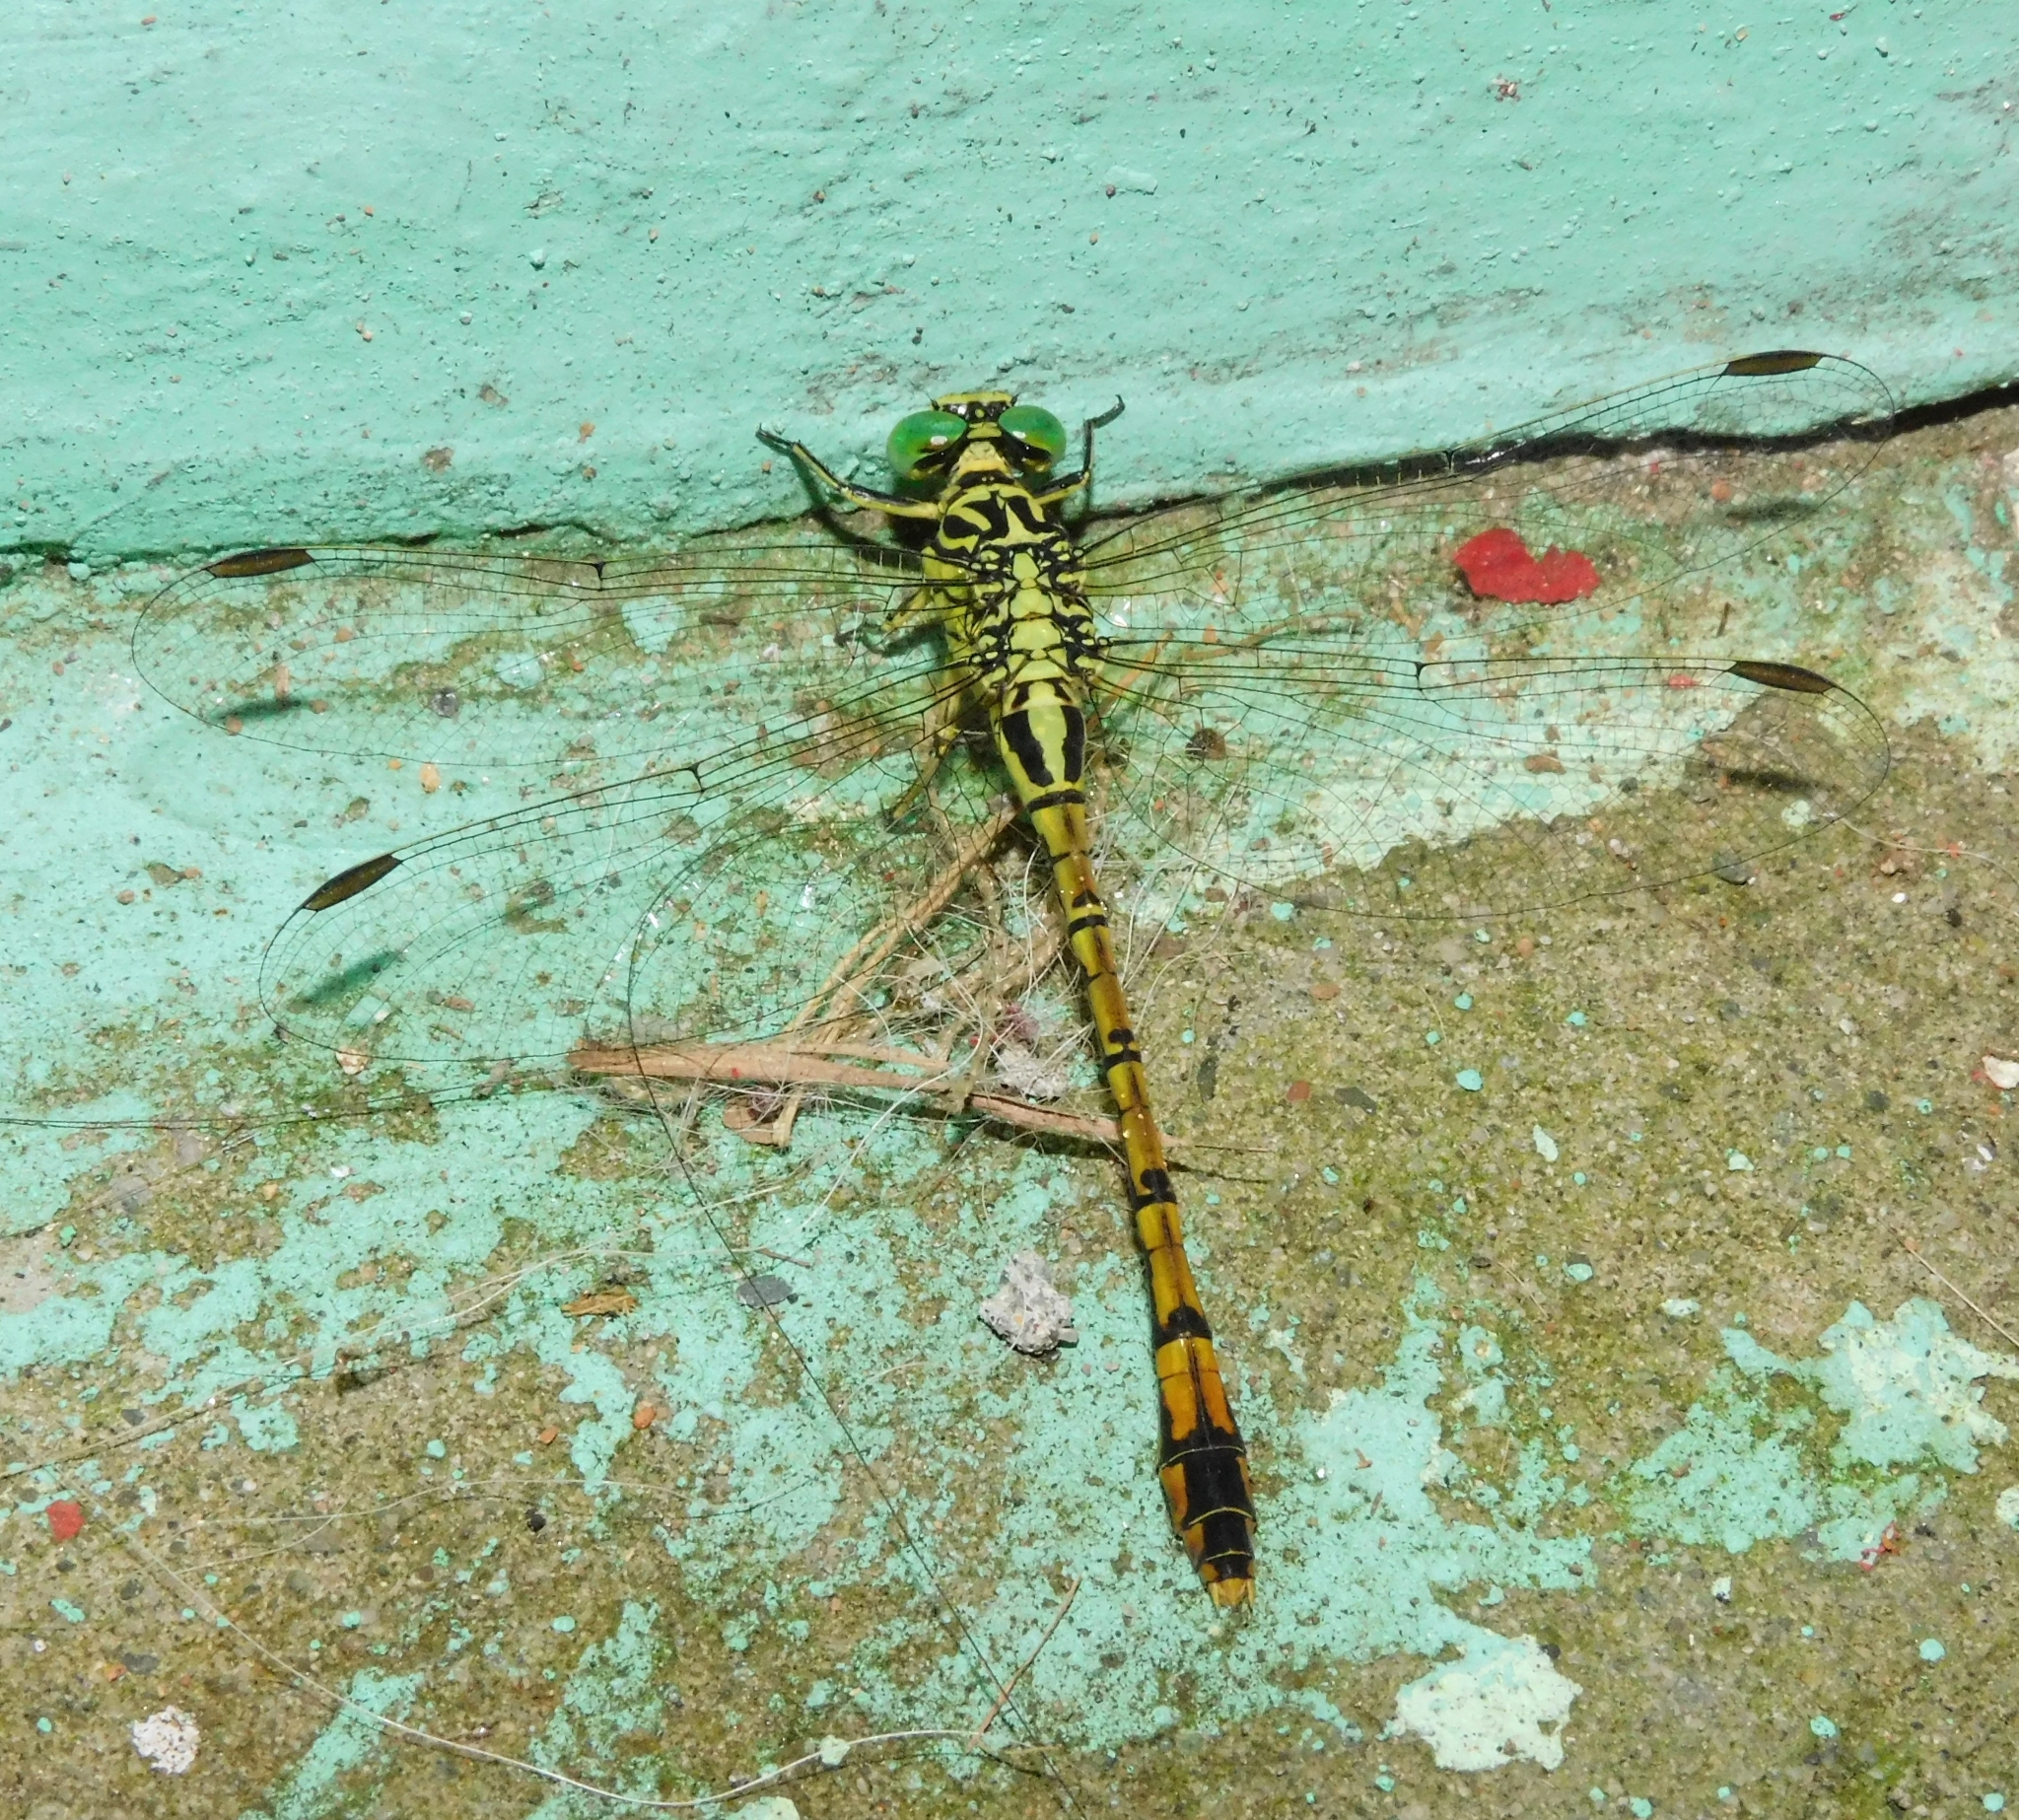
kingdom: Animalia
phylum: Arthropoda
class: Insecta
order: Odonata
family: Gomphidae
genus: Scalmogomphus
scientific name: Scalmogomphus bistrigatus
